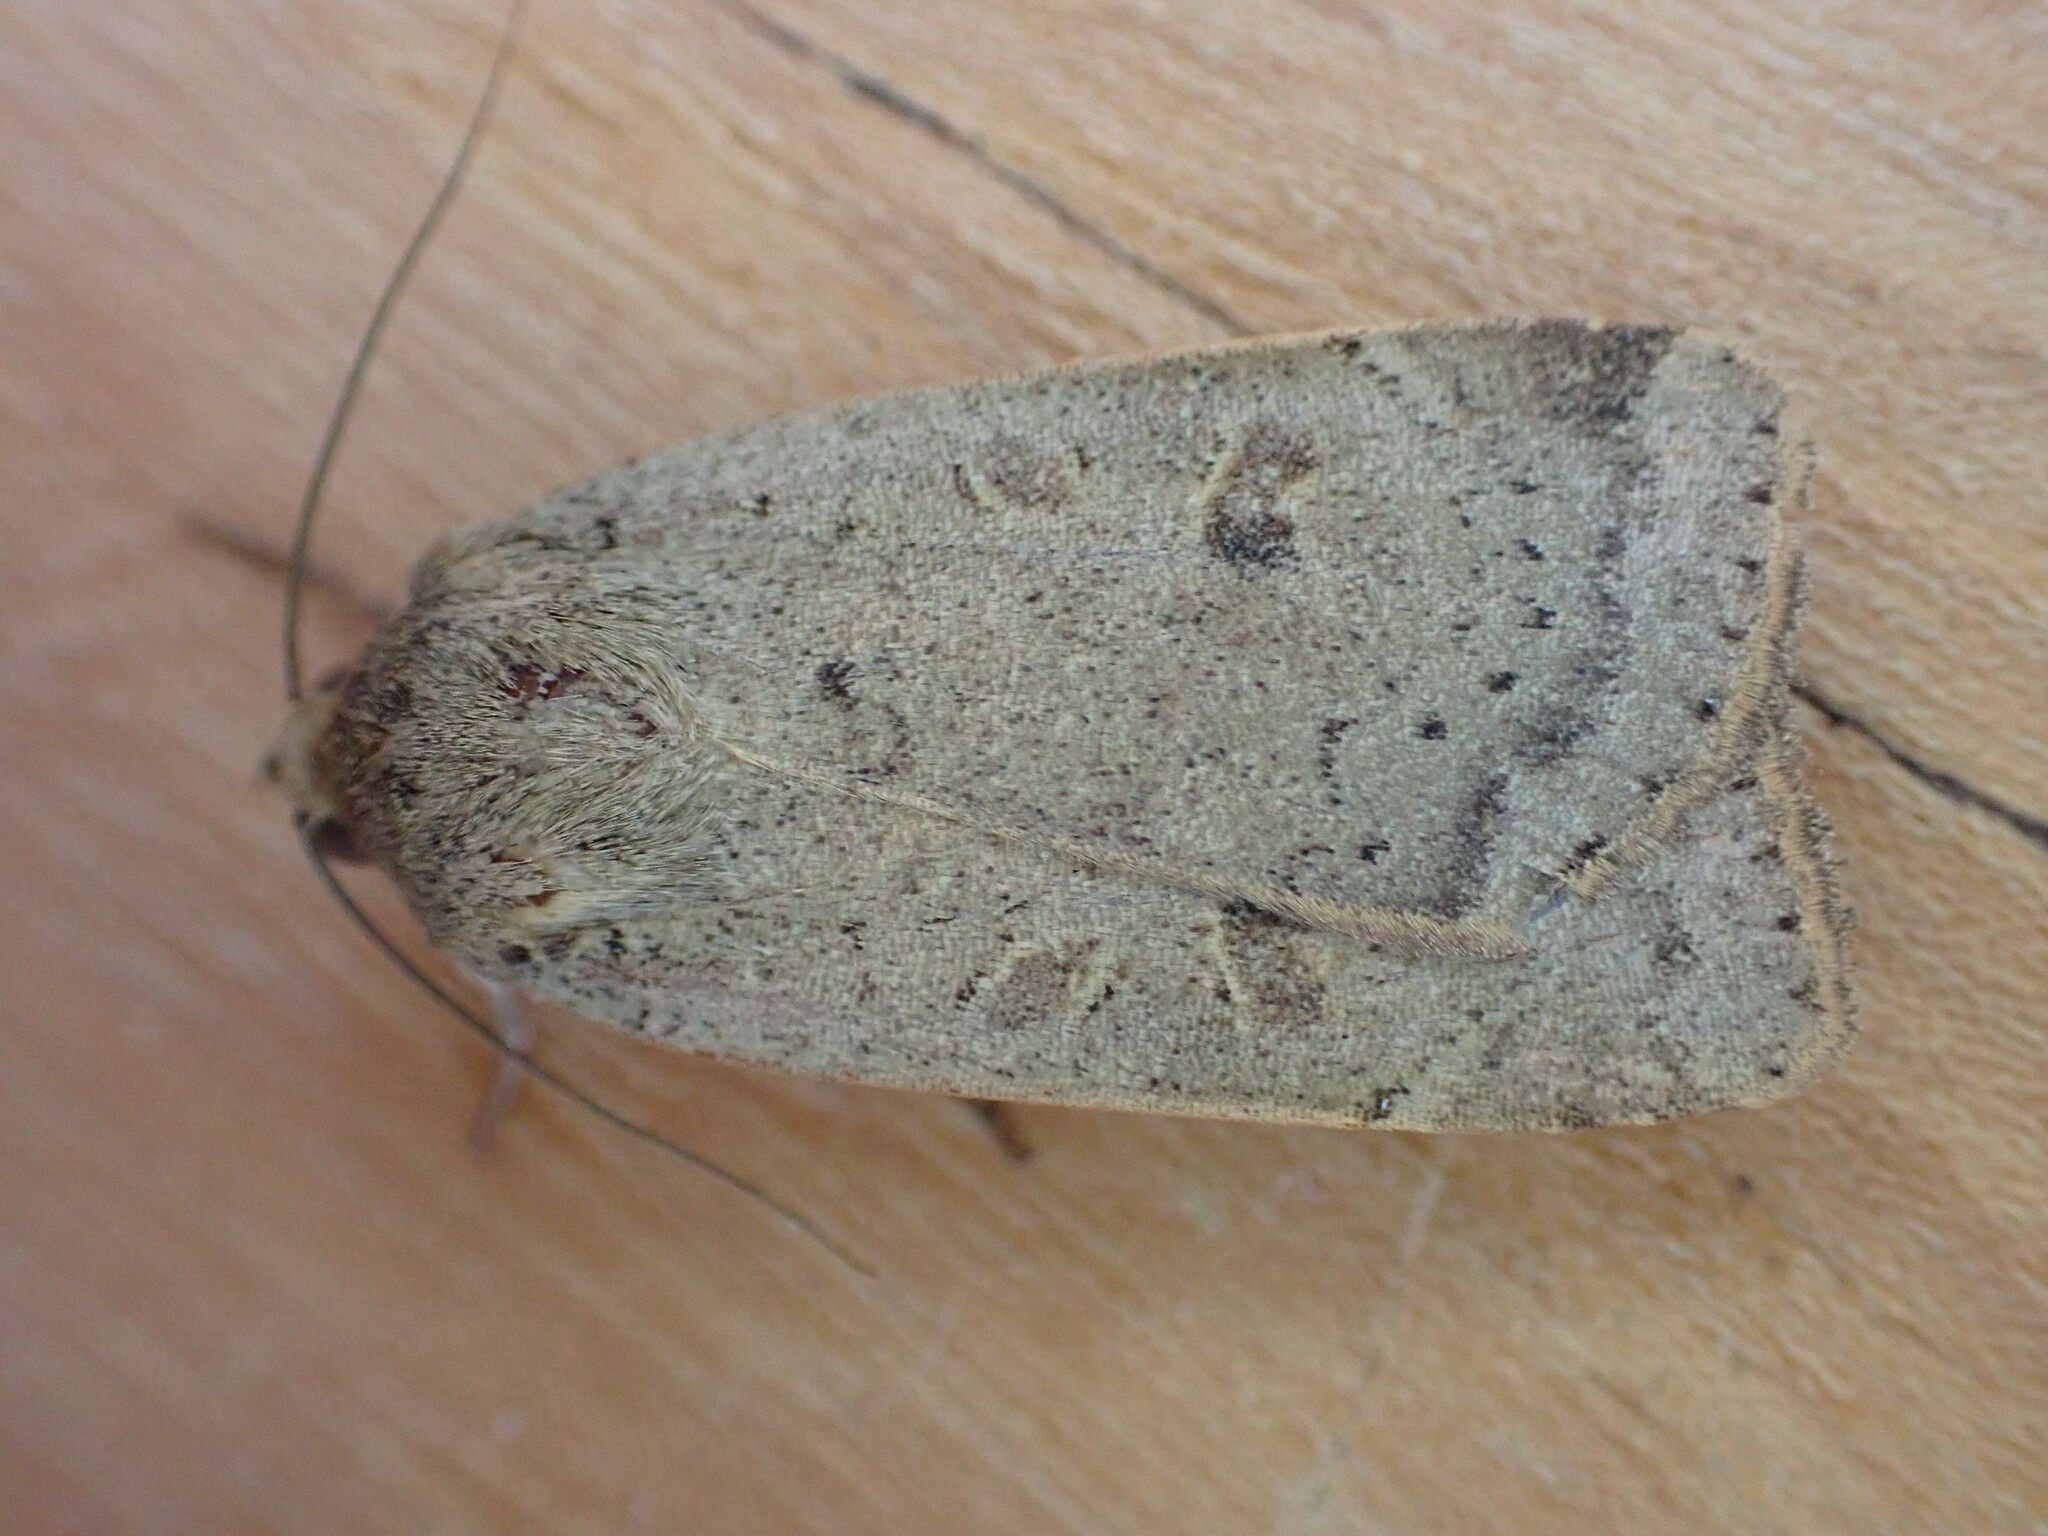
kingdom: Animalia
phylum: Arthropoda
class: Insecta
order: Lepidoptera
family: Noctuidae
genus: Noctua
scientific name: Noctua comes
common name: Lesser yellow underwing
